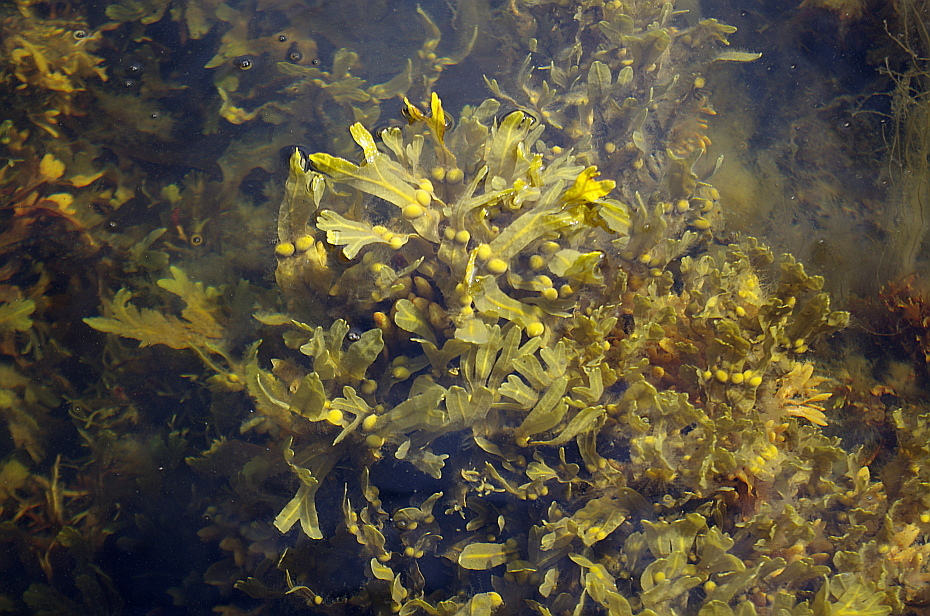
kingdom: Chromista
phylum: Ochrophyta
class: Phaeophyceae
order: Fucales
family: Fucaceae
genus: Fucus
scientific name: Fucus vesiculosus
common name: Bladder wrack
